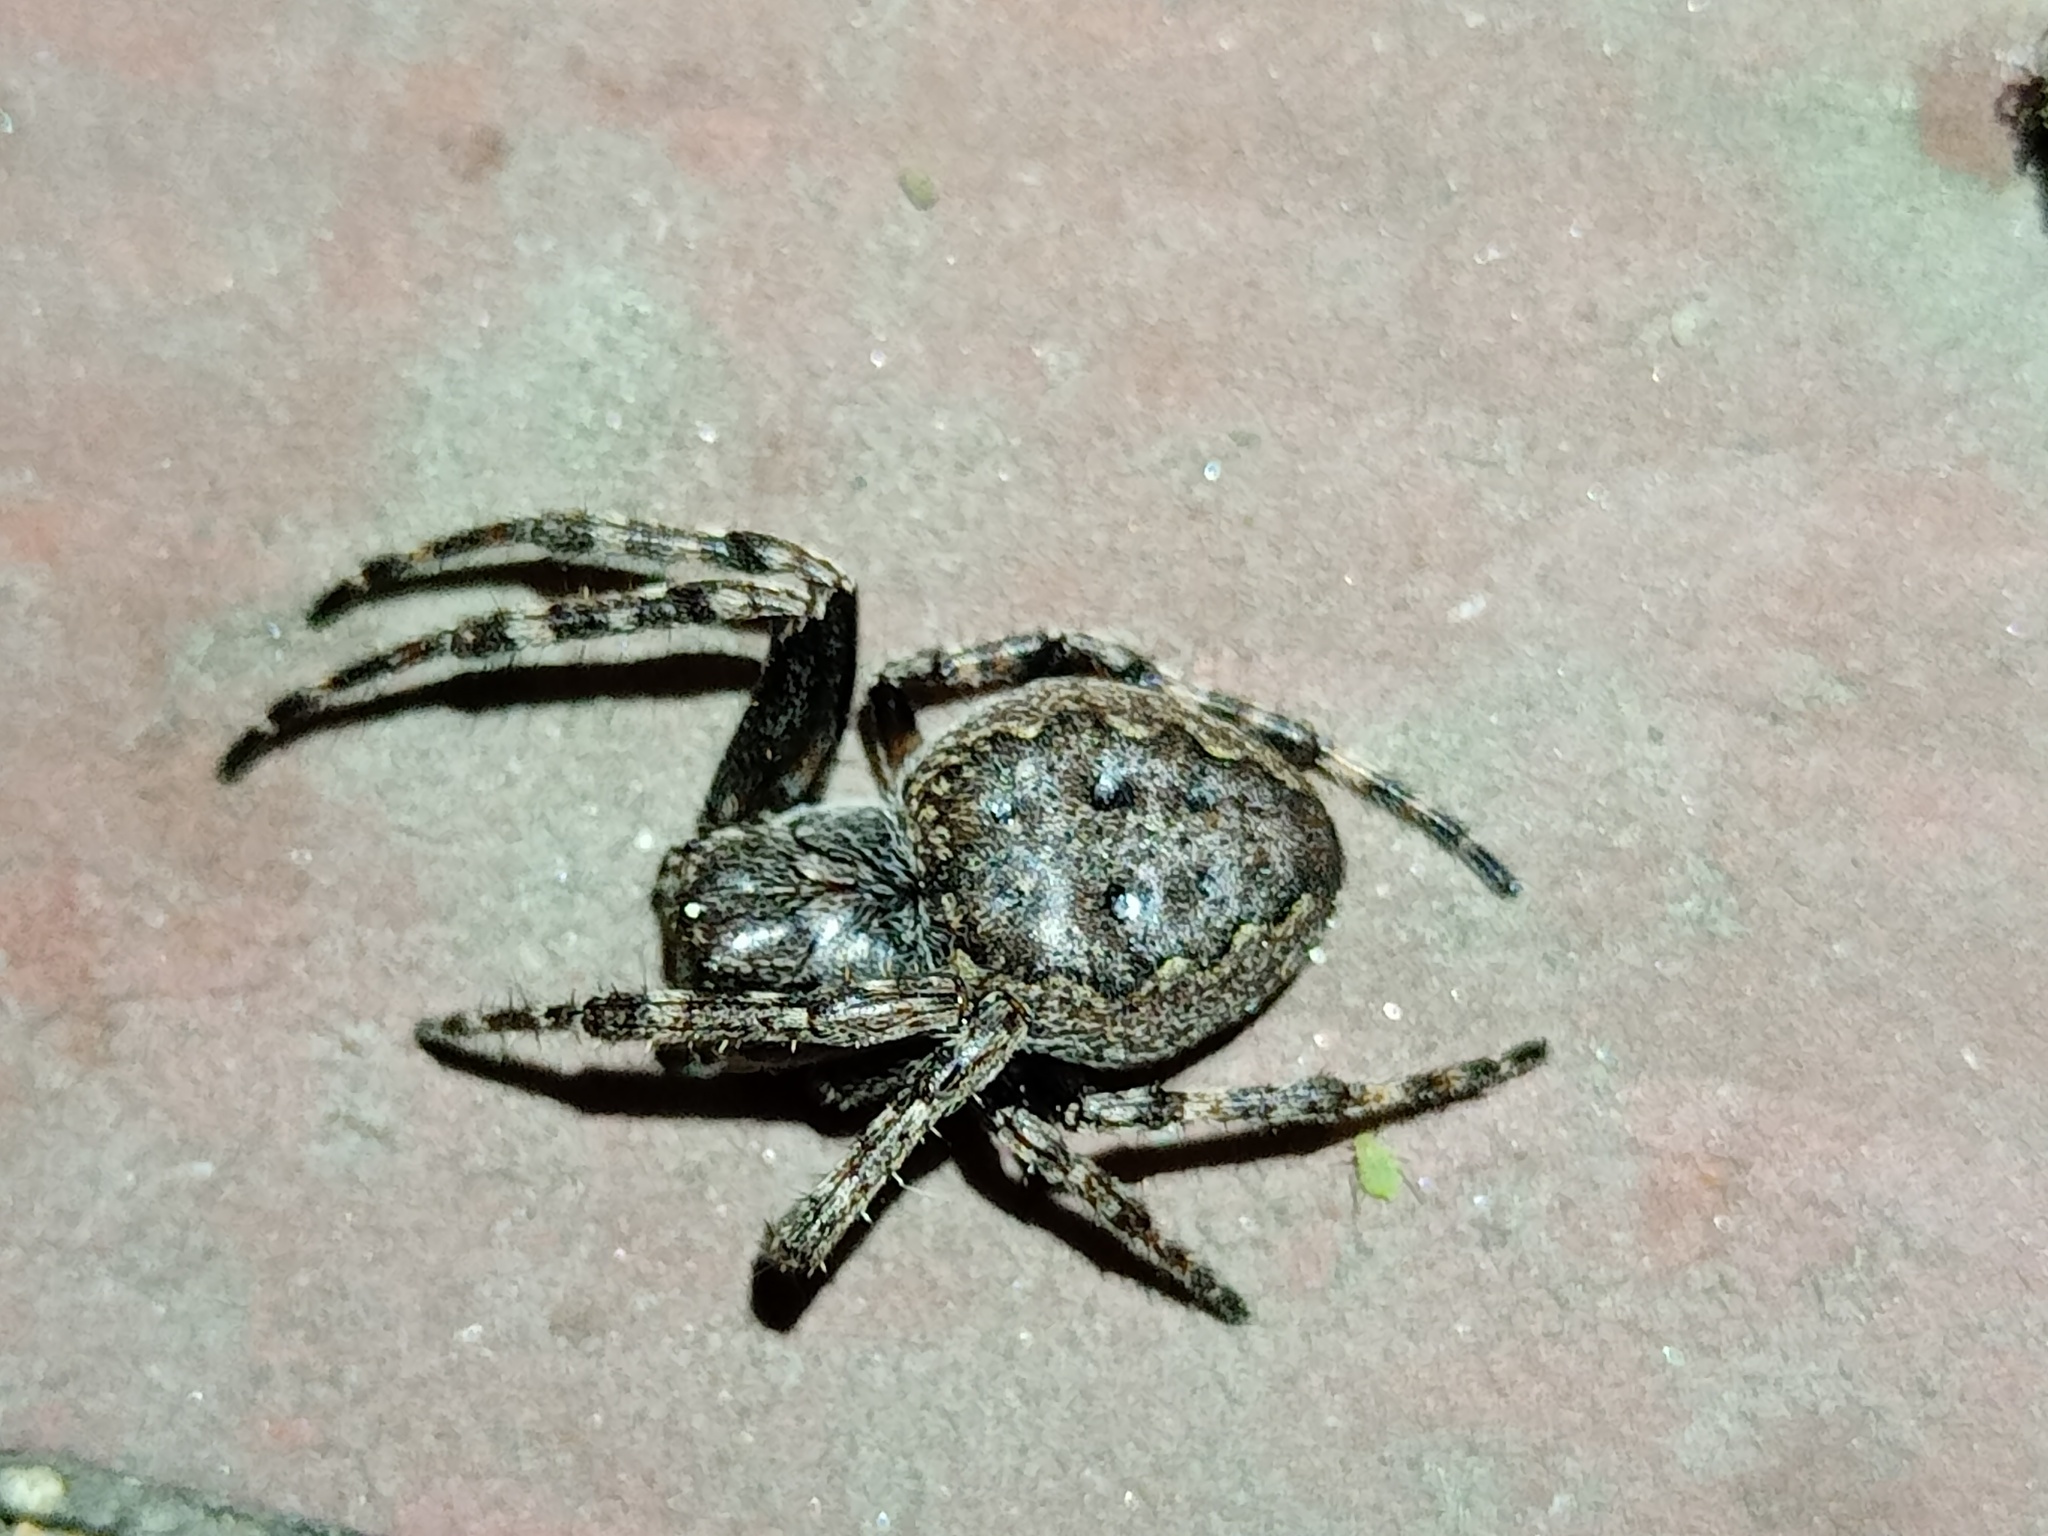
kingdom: Animalia
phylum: Arthropoda
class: Arachnida
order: Araneae
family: Araneidae
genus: Nuctenea
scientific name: Nuctenea umbratica
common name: Toad spider
